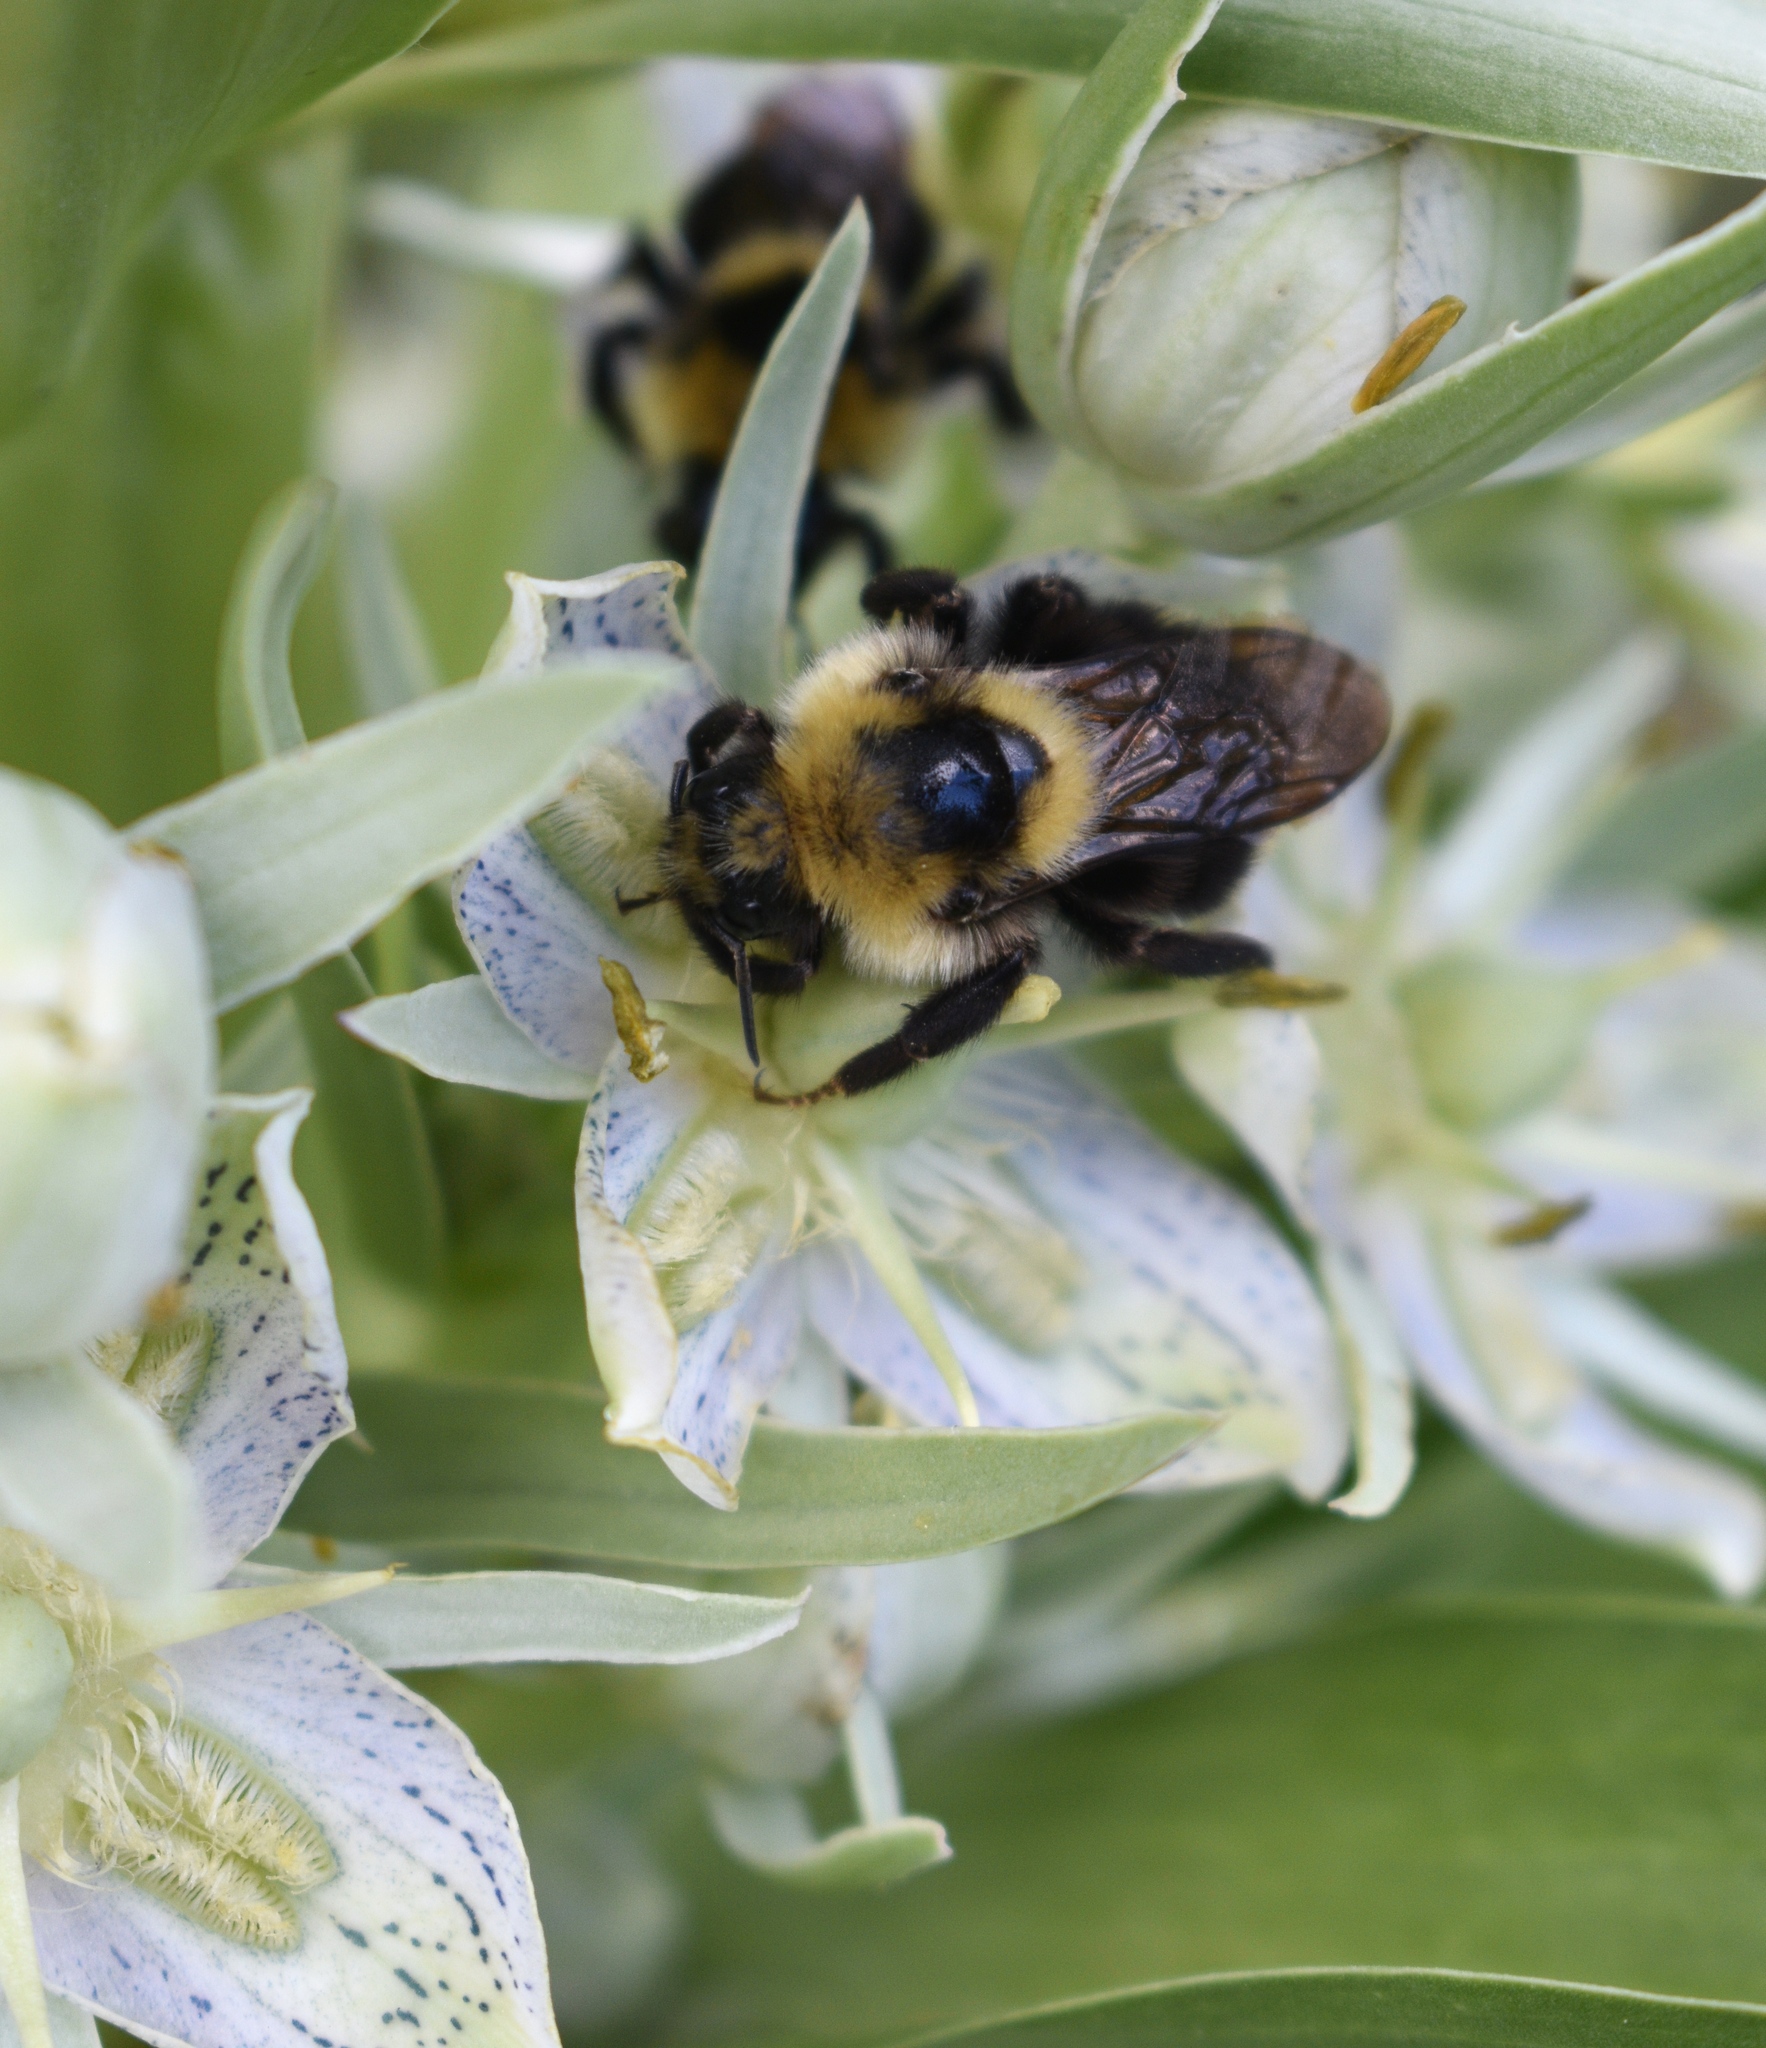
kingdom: Animalia
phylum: Arthropoda
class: Insecta
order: Hymenoptera
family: Apidae
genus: Bombus
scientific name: Bombus insularis
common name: Indiscriminate cuckoo bumble bee
